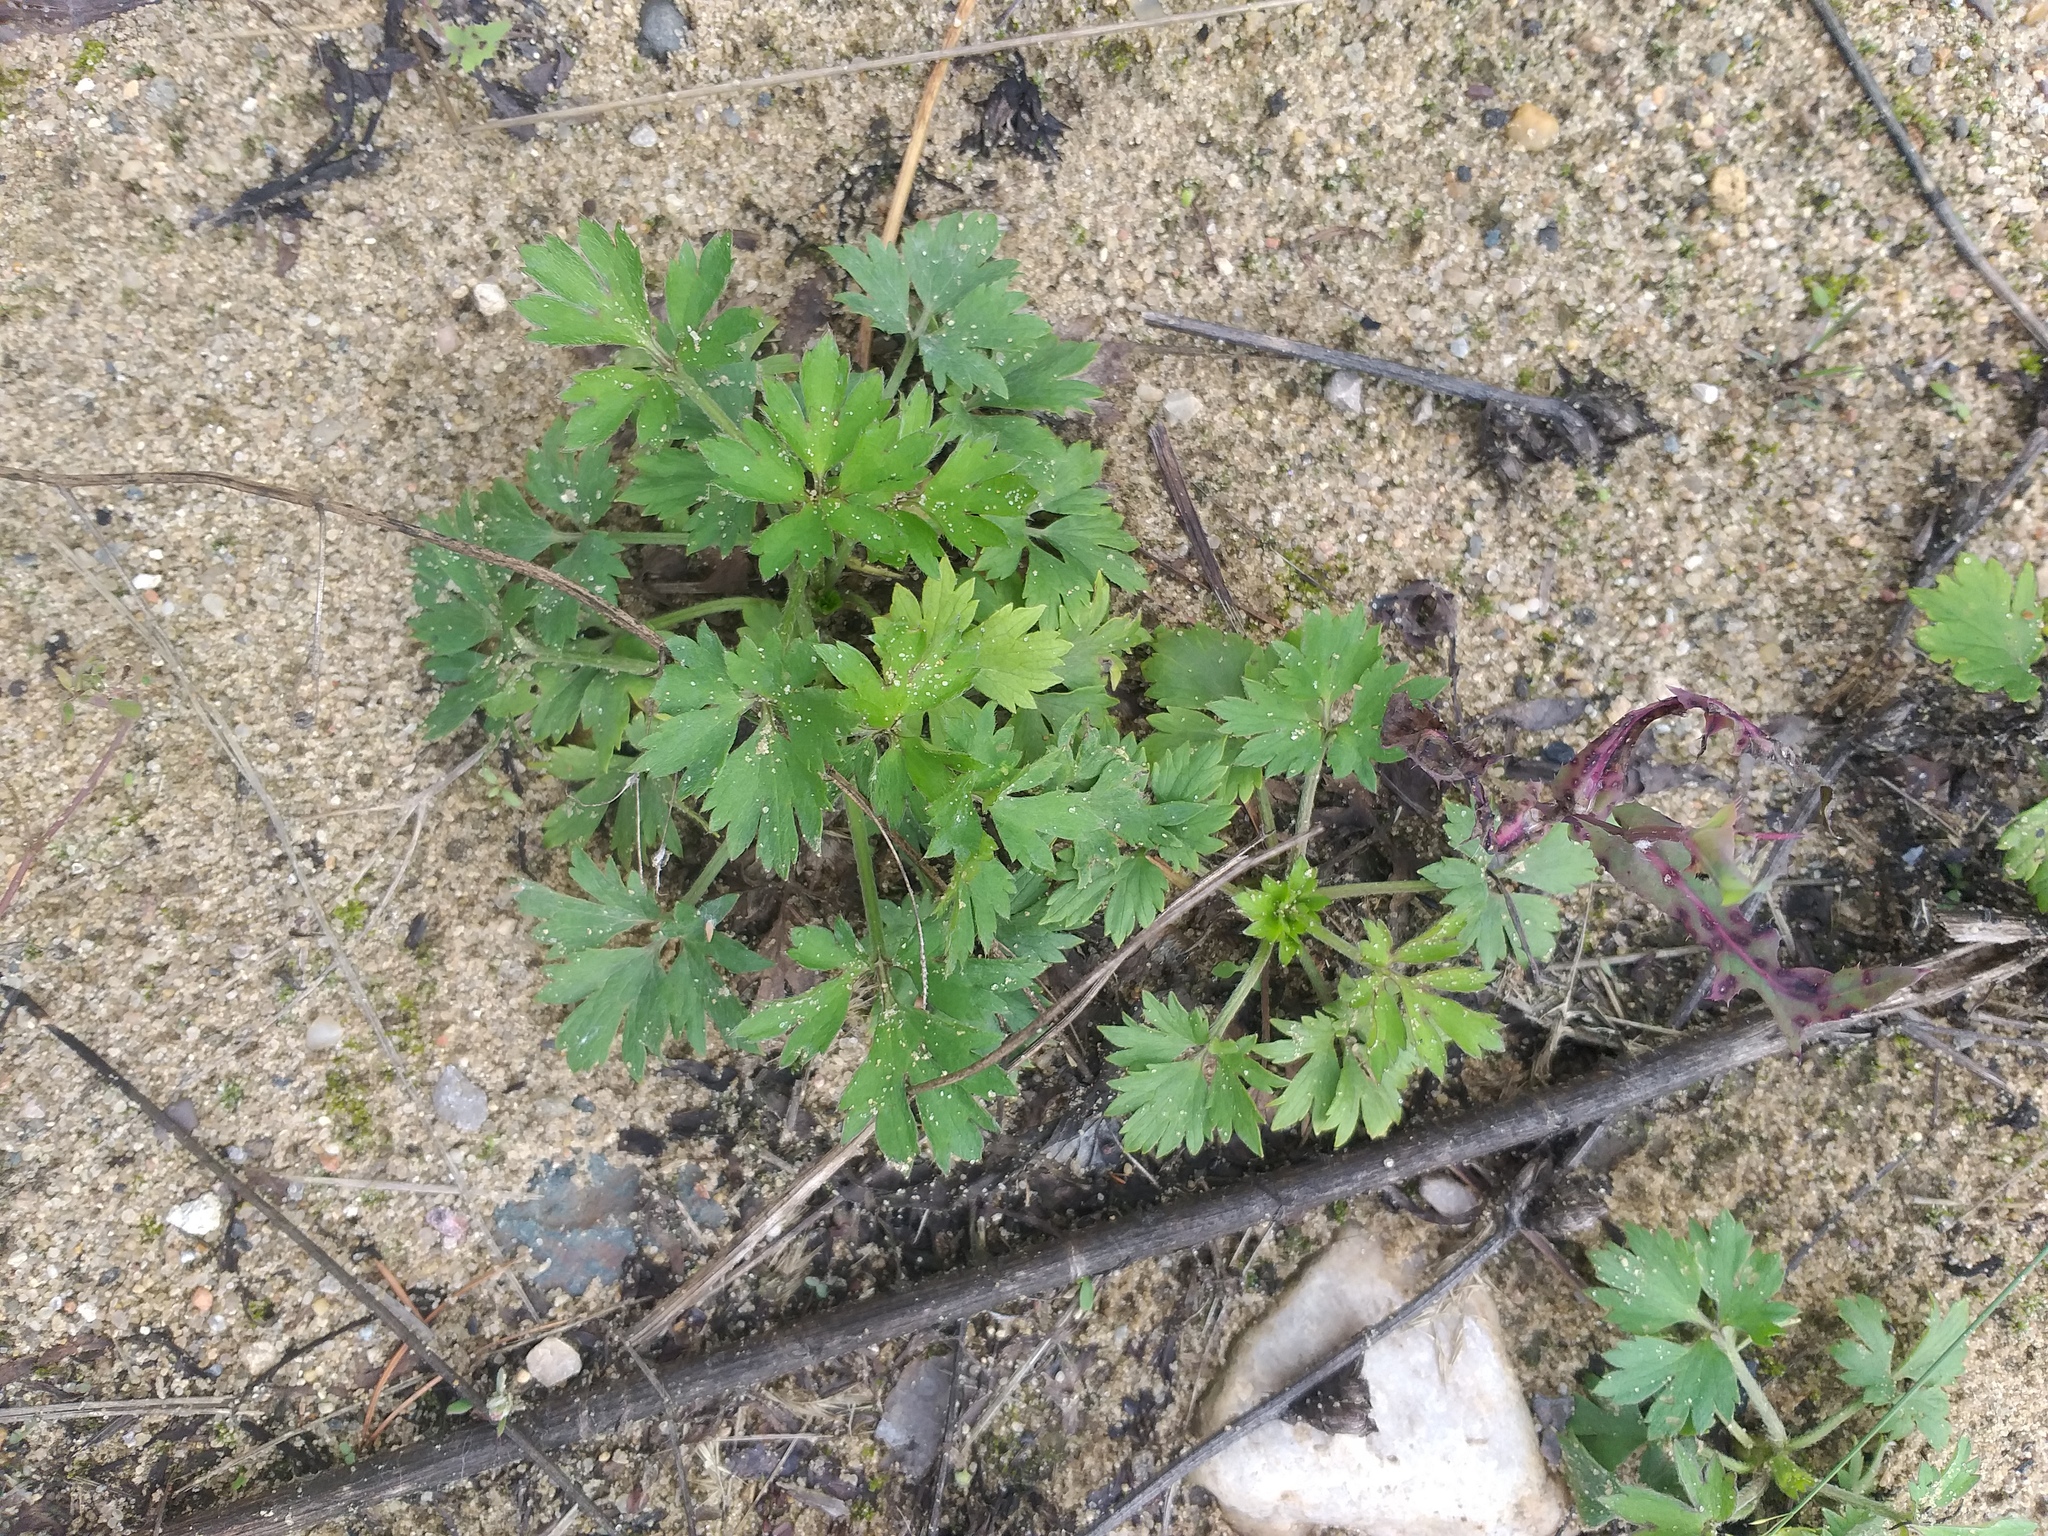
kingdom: Plantae
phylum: Tracheophyta
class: Magnoliopsida
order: Ranunculales
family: Ranunculaceae
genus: Ranunculus
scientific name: Ranunculus repens
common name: Creeping buttercup
